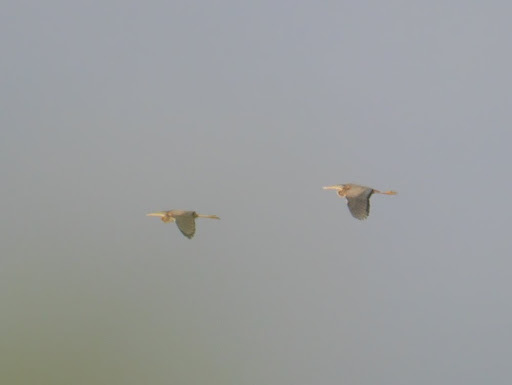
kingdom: Animalia
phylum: Chordata
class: Aves
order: Pelecaniformes
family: Ardeidae
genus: Ardea
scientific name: Ardea purpurea
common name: Purple heron
